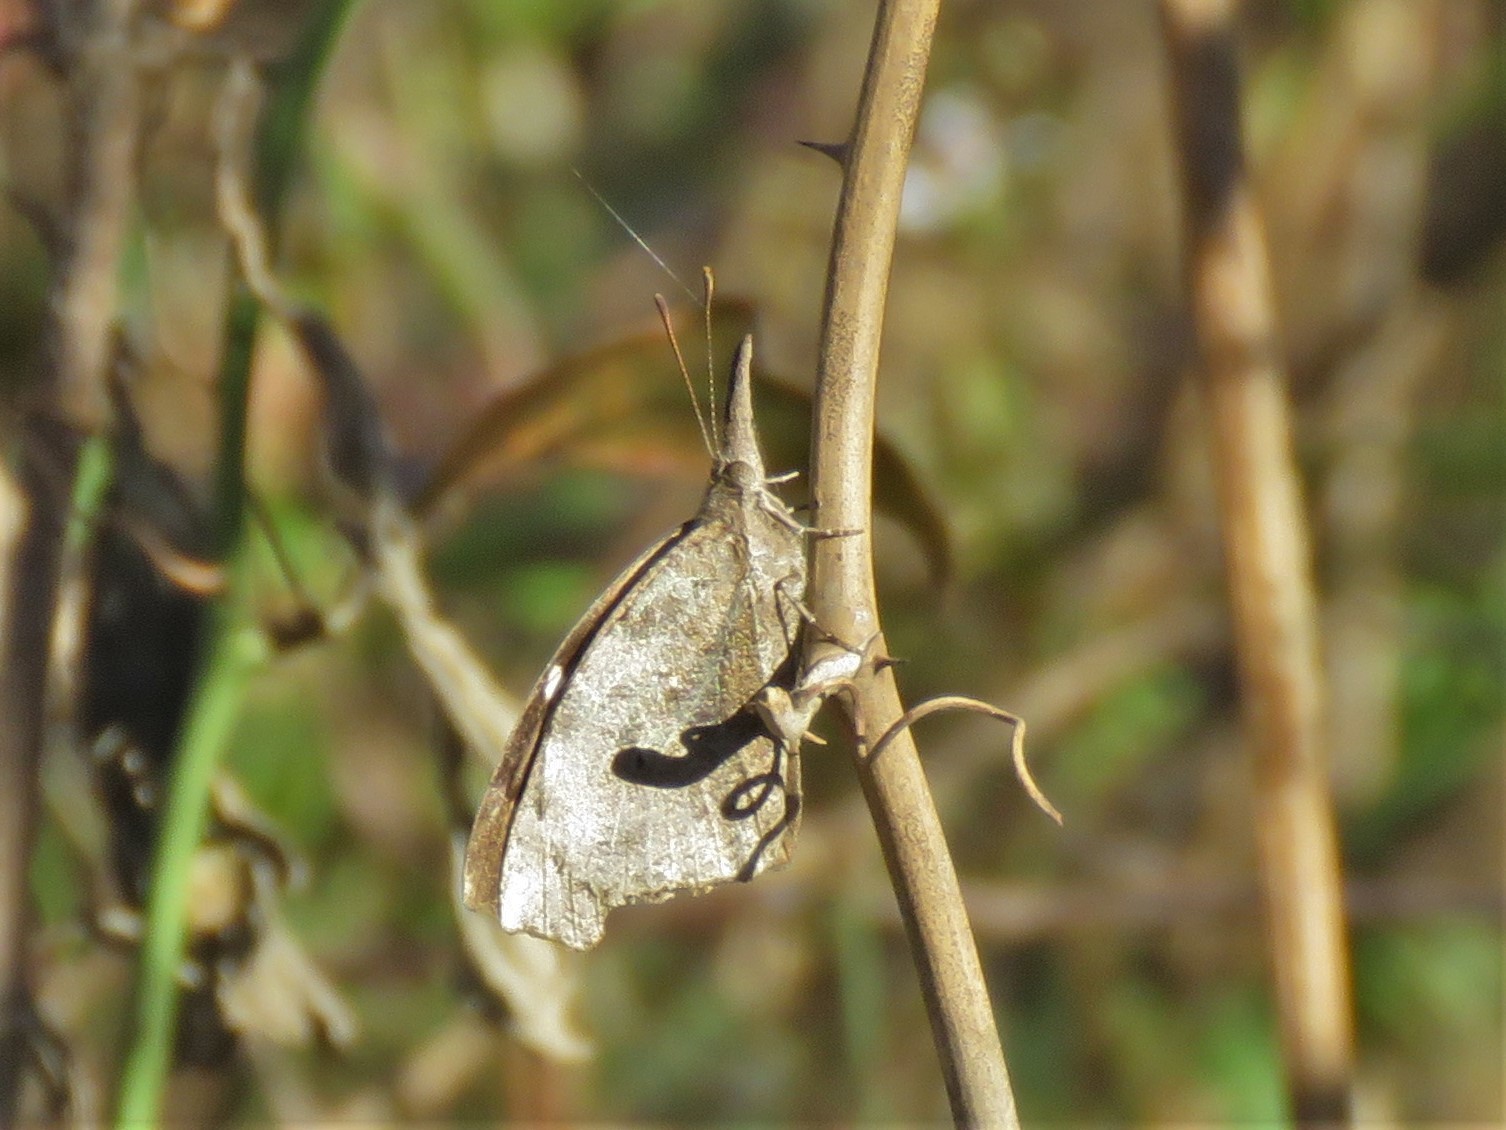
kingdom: Animalia
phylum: Arthropoda
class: Insecta
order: Lepidoptera
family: Nymphalidae
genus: Libytheana
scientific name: Libytheana carinenta
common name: American snout
